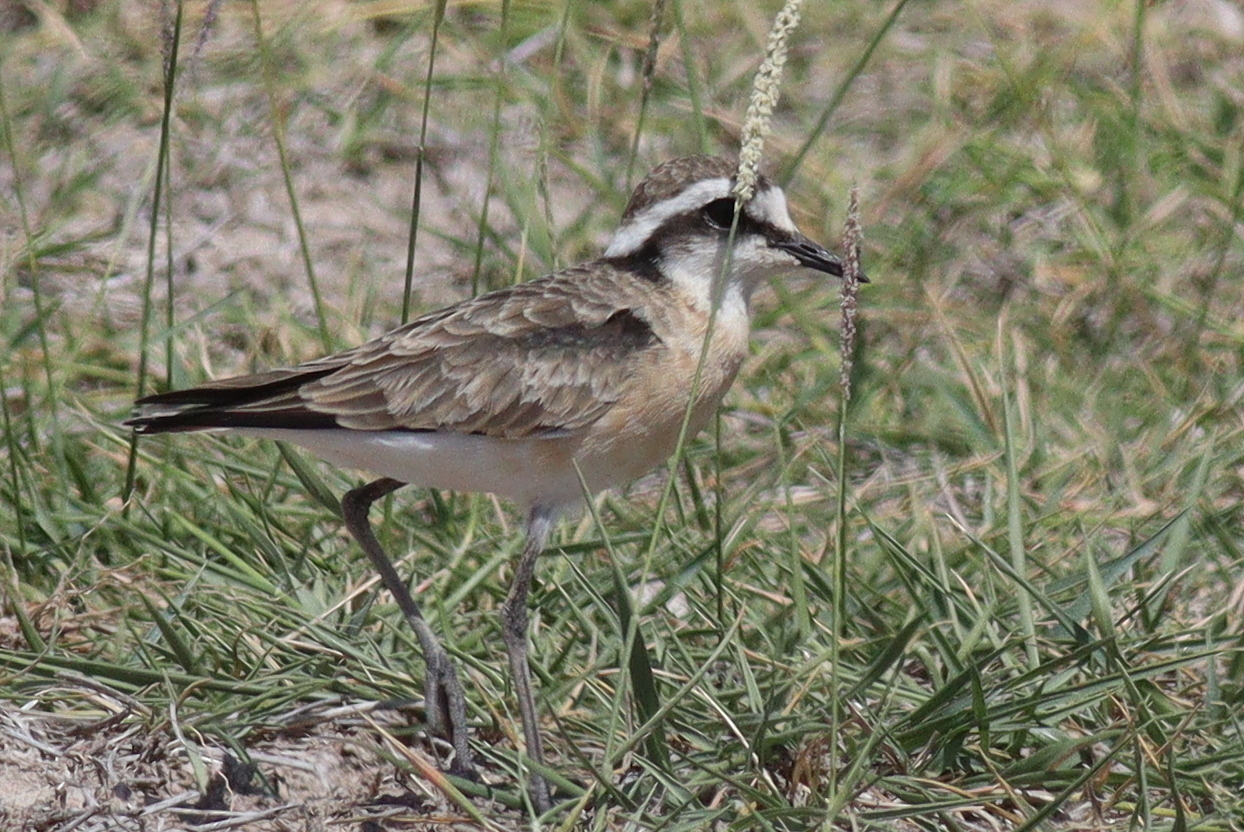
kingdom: Animalia
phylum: Chordata
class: Aves
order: Charadriiformes
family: Charadriidae
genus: Anarhynchus
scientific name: Anarhynchus
